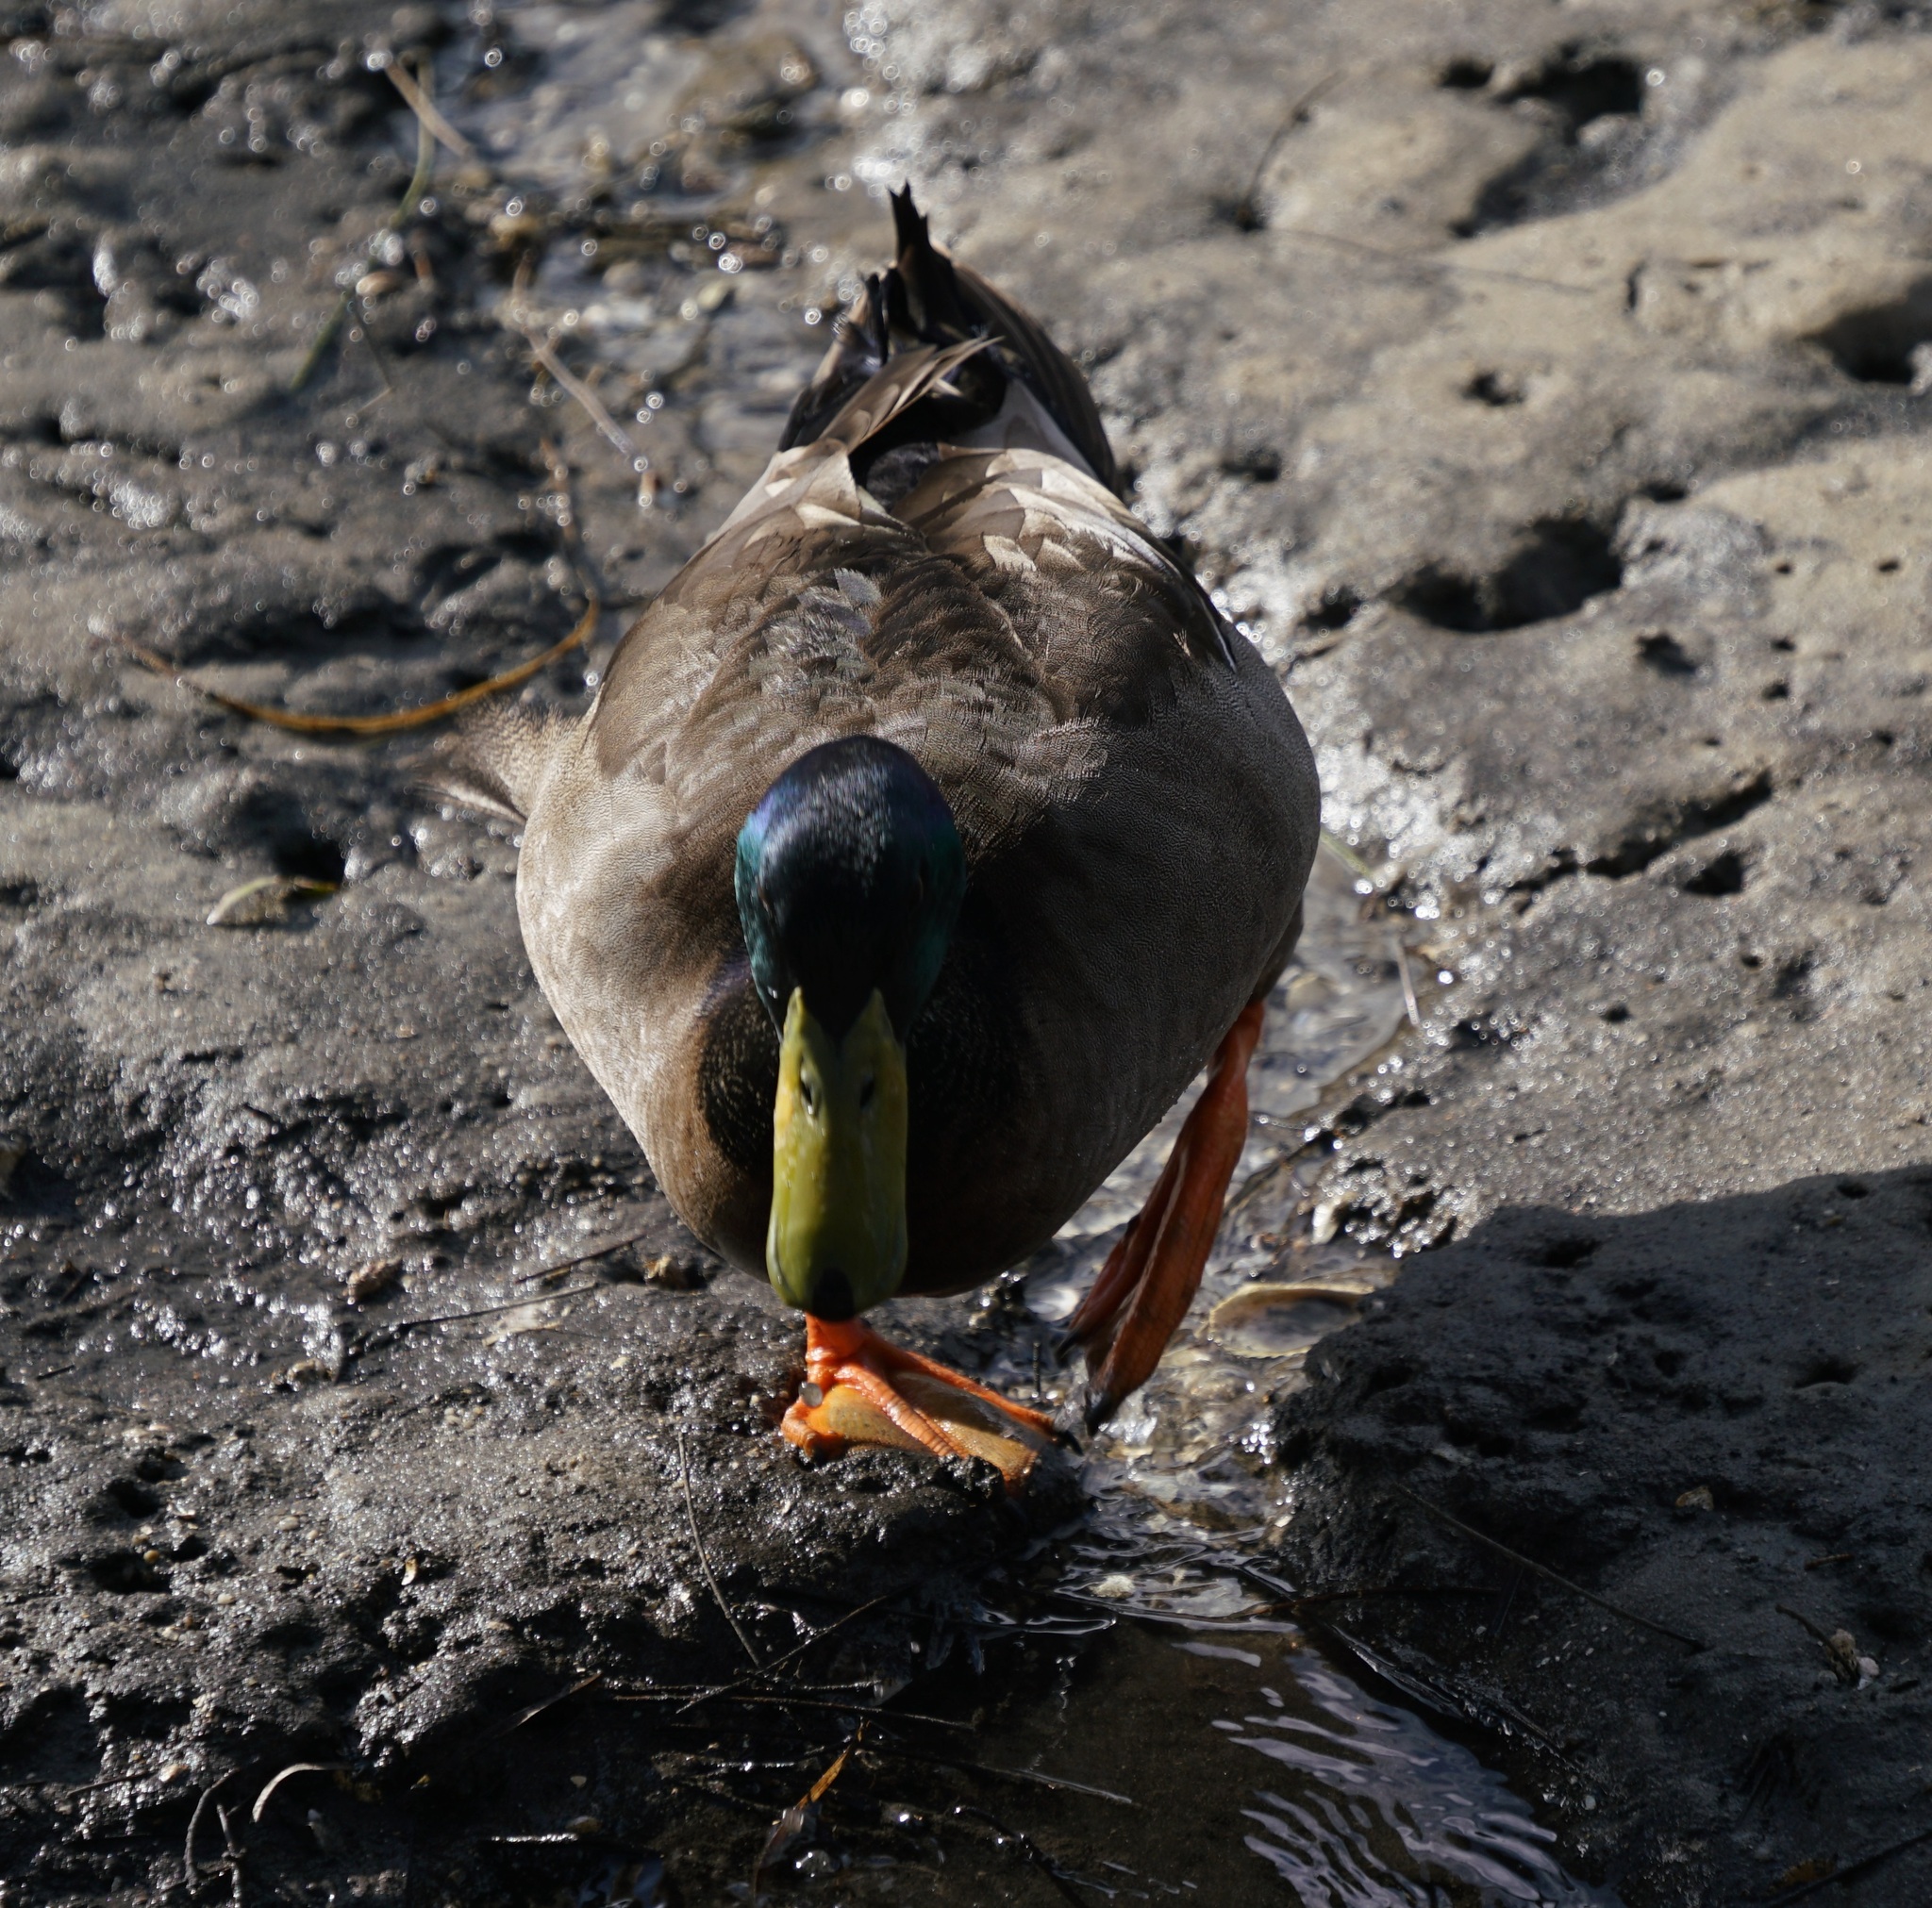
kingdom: Animalia
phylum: Chordata
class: Aves
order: Anseriformes
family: Anatidae
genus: Anas
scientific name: Anas platyrhynchos
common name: Mallard
